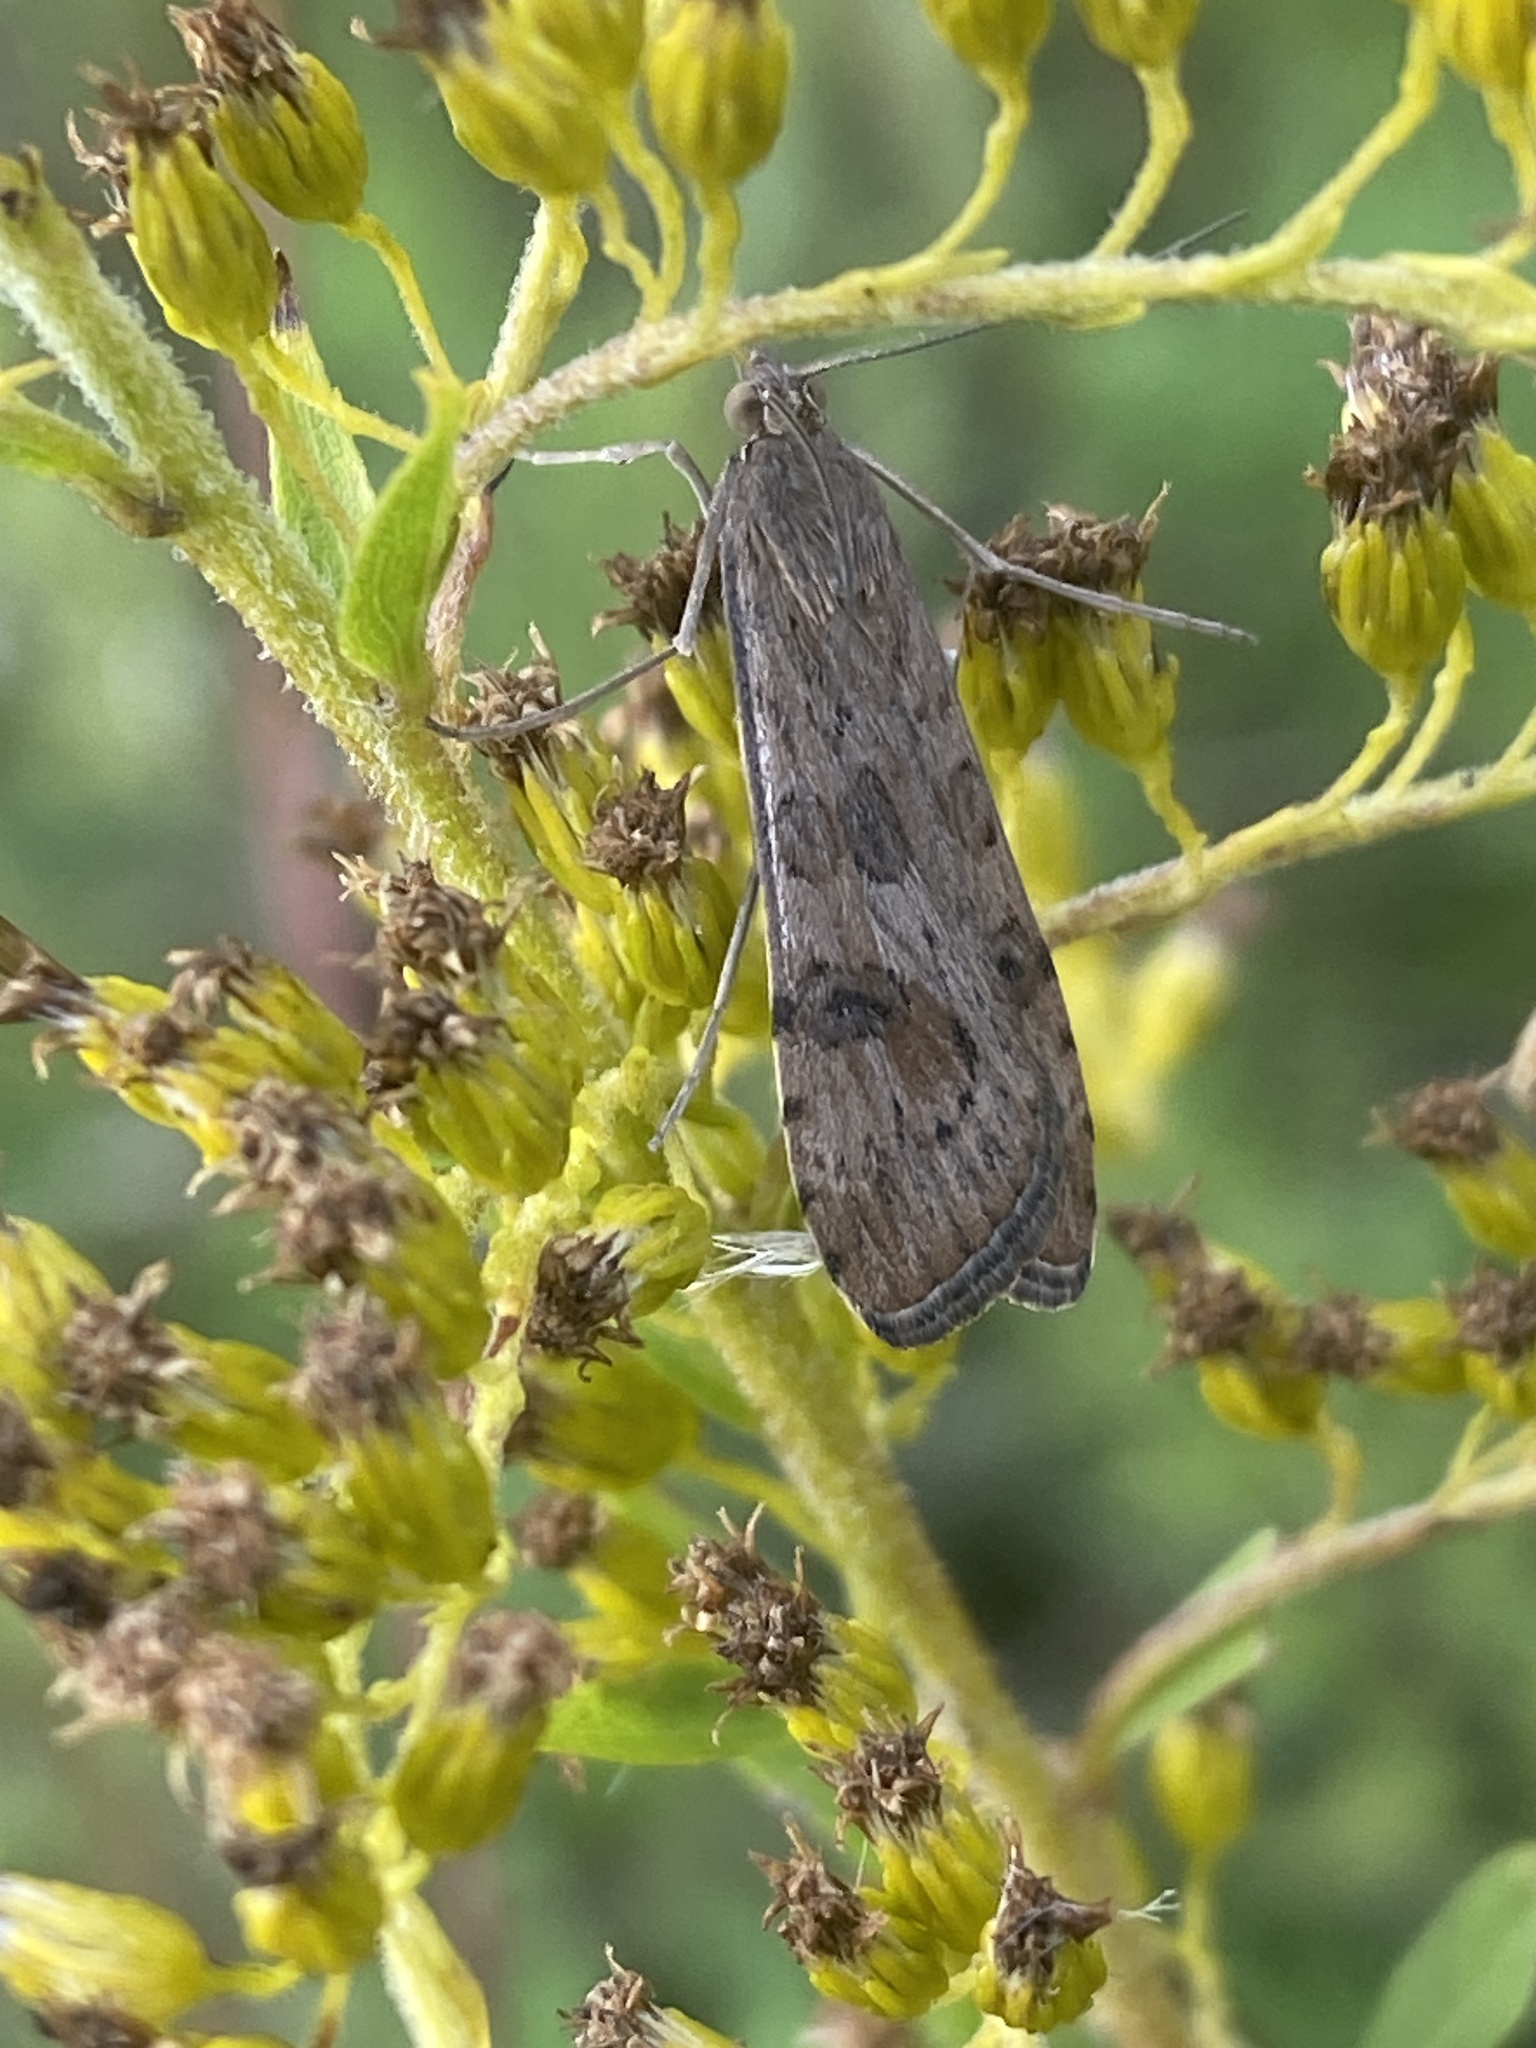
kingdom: Animalia
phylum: Arthropoda
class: Insecta
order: Lepidoptera
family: Crambidae
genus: Nomophila
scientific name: Nomophila noctuella
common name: Rush veneer
